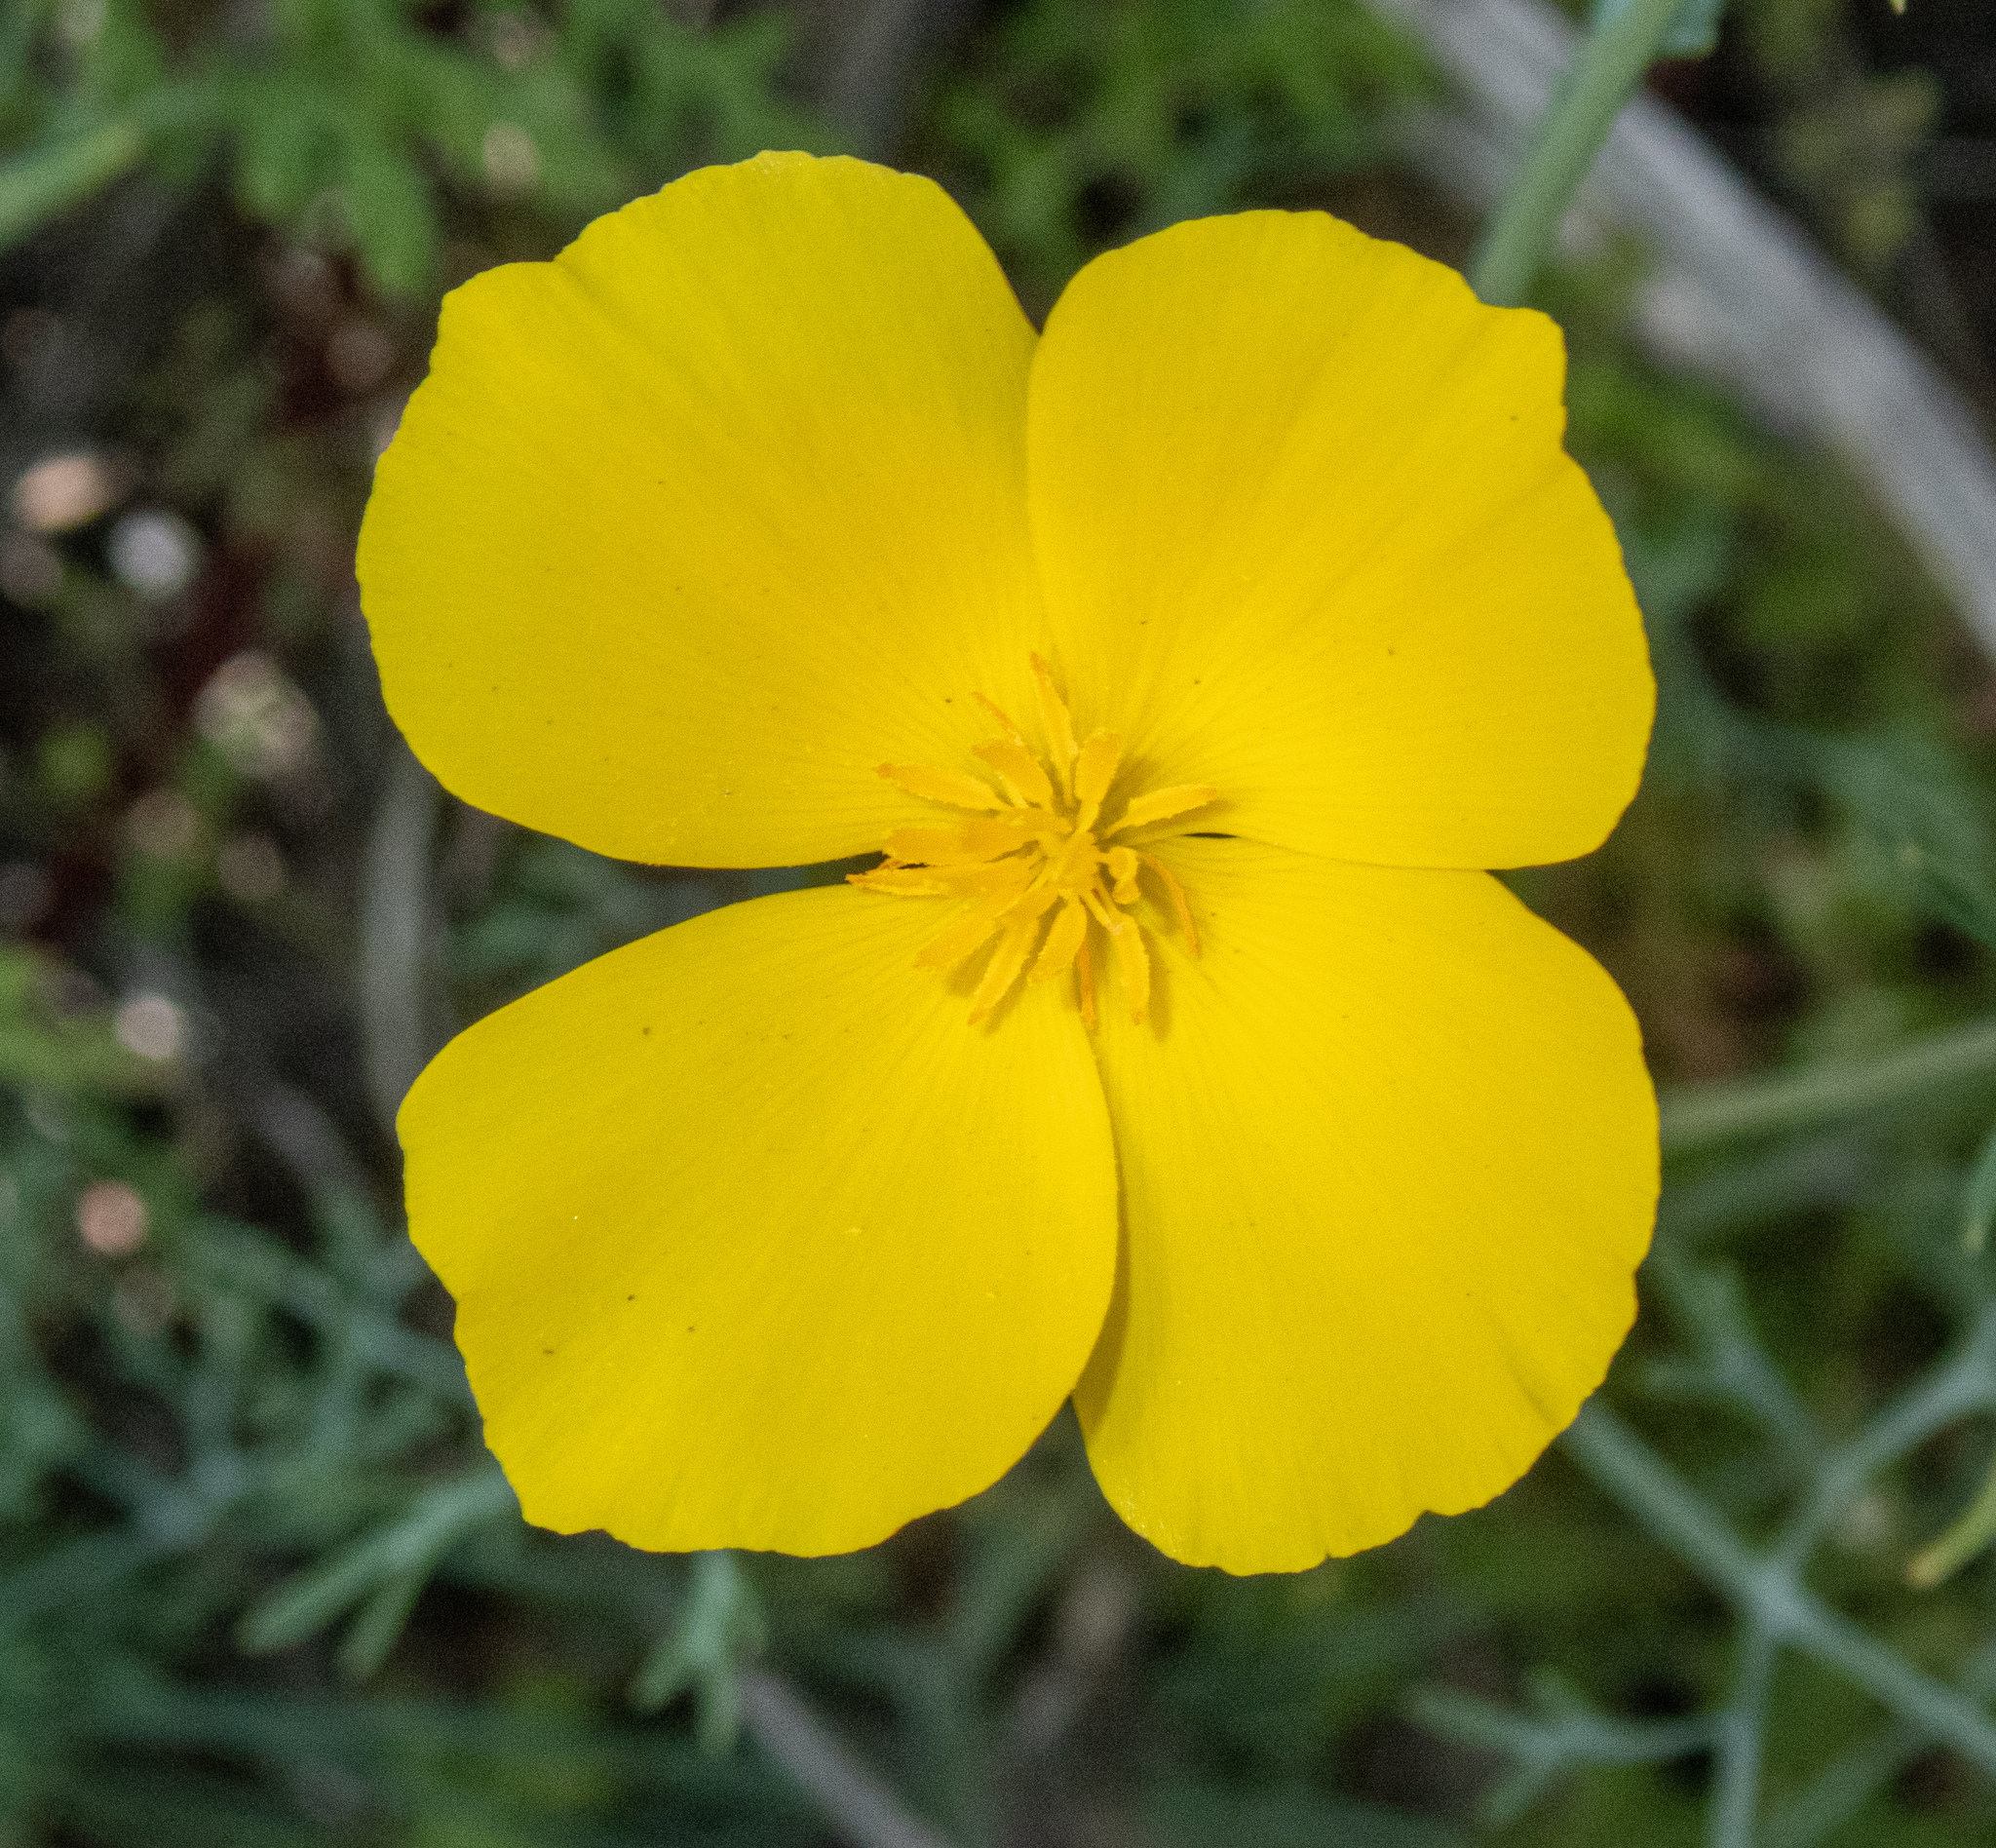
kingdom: Plantae
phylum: Tracheophyta
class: Magnoliopsida
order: Ranunculales
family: Papaveraceae
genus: Eschscholzia
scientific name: Eschscholzia parishii
